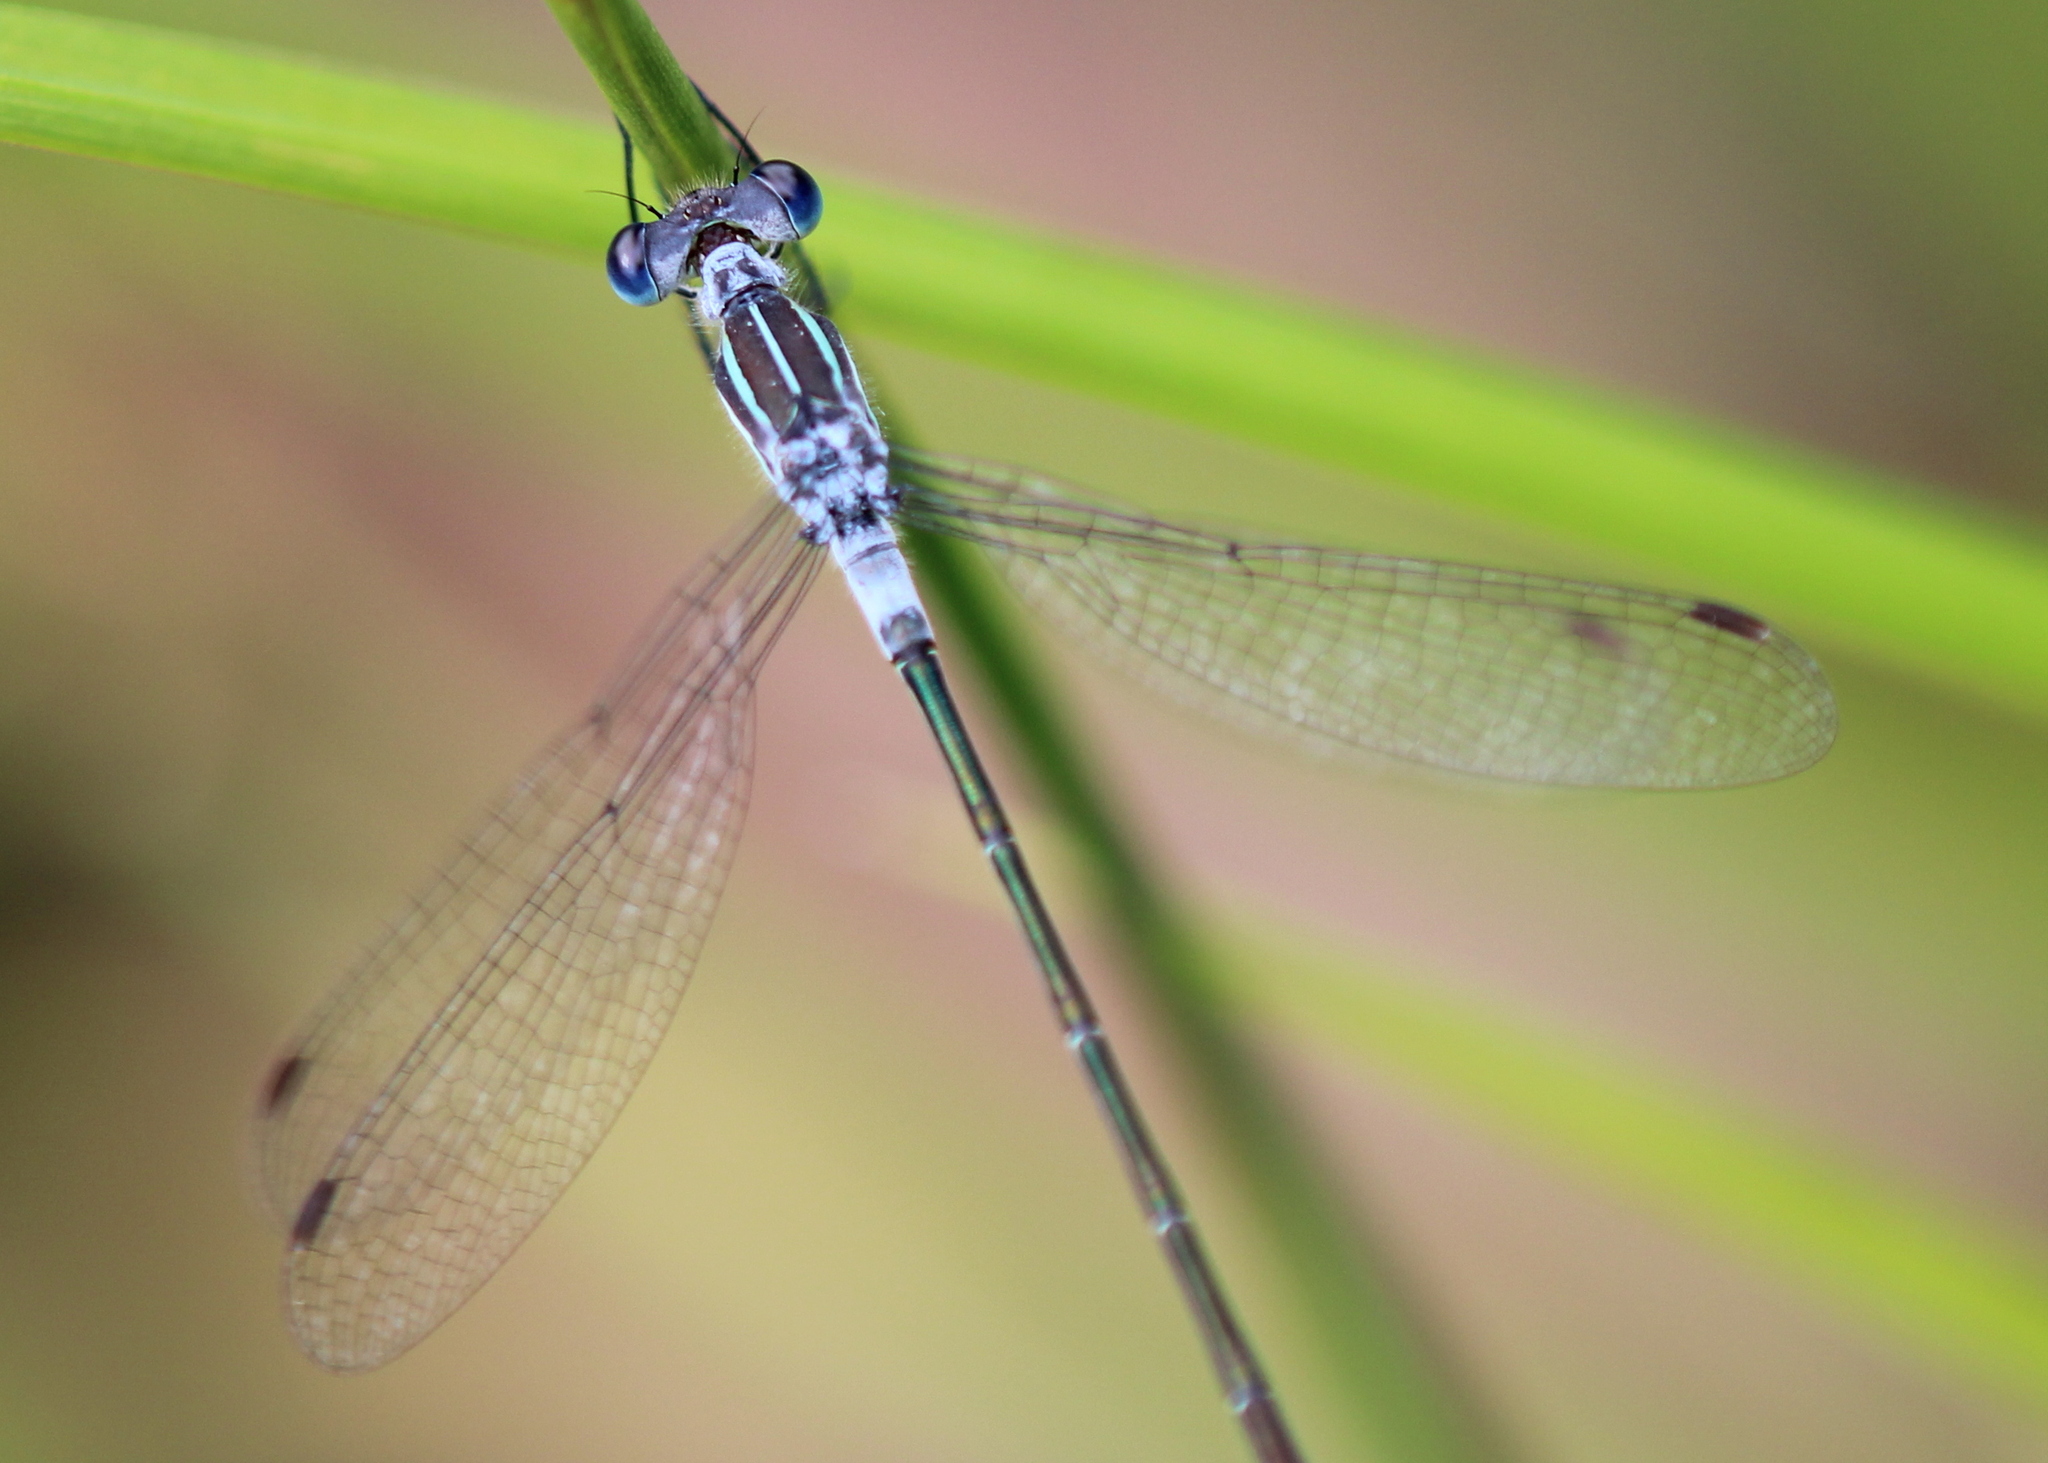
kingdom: Animalia
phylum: Arthropoda
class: Insecta
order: Odonata
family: Lestidae
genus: Lestes
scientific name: Lestes disjunctus
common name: Northern spreadwing
